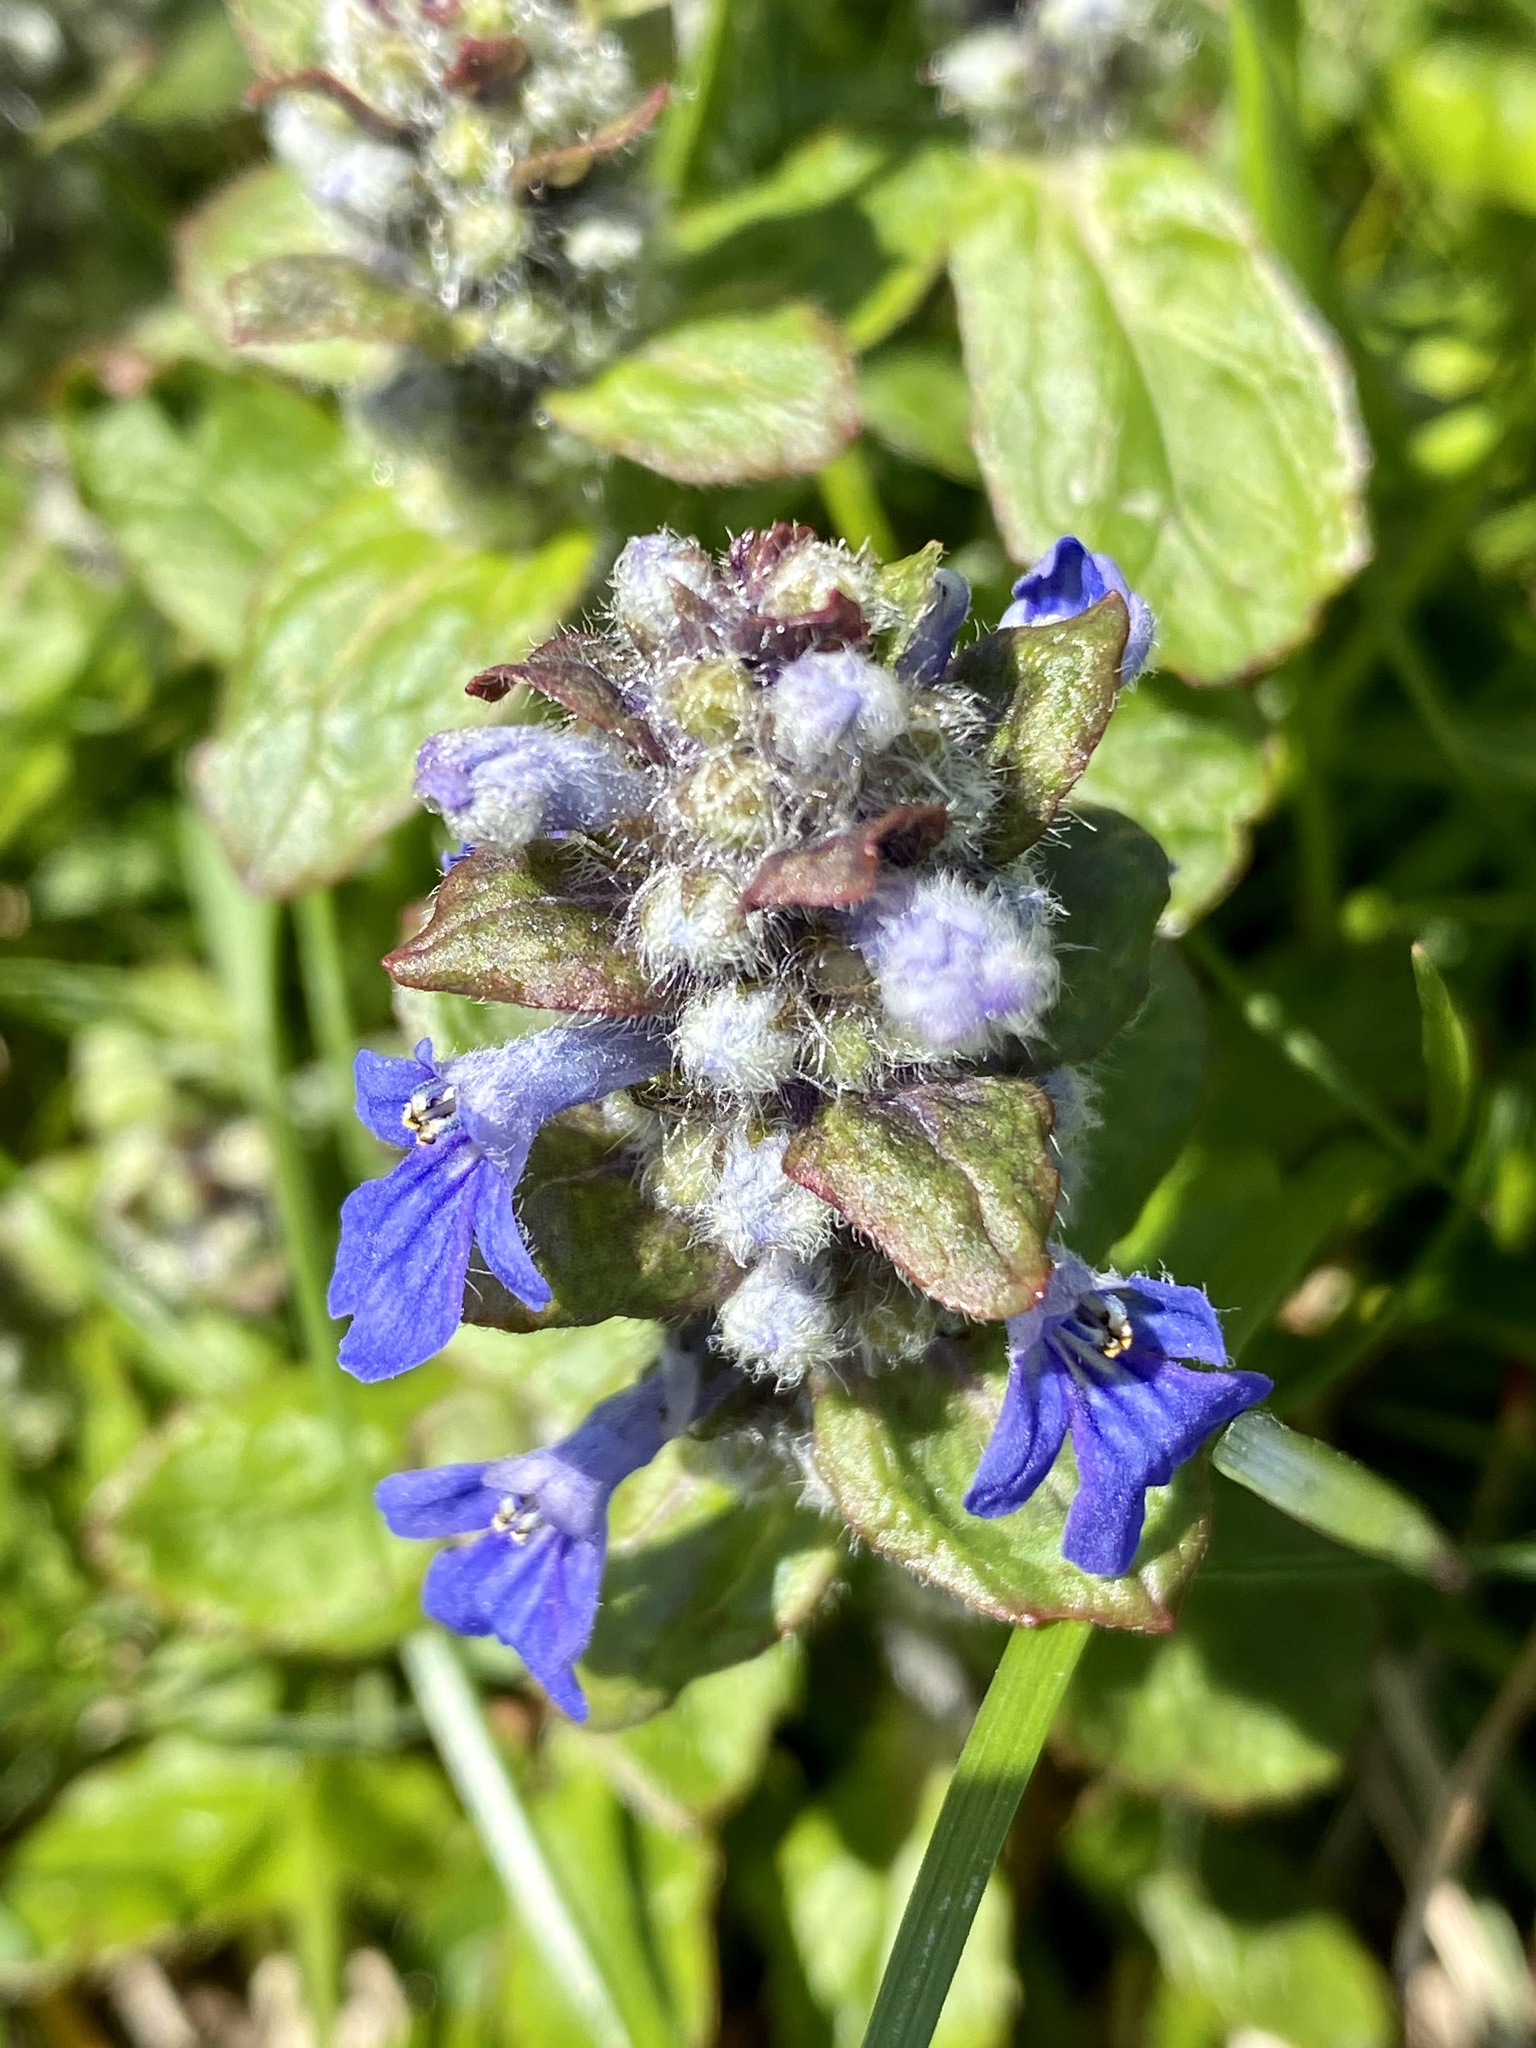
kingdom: Plantae
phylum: Tracheophyta
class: Magnoliopsida
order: Lamiales
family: Lamiaceae
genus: Ajuga
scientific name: Ajuga reptans
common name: Bugle
